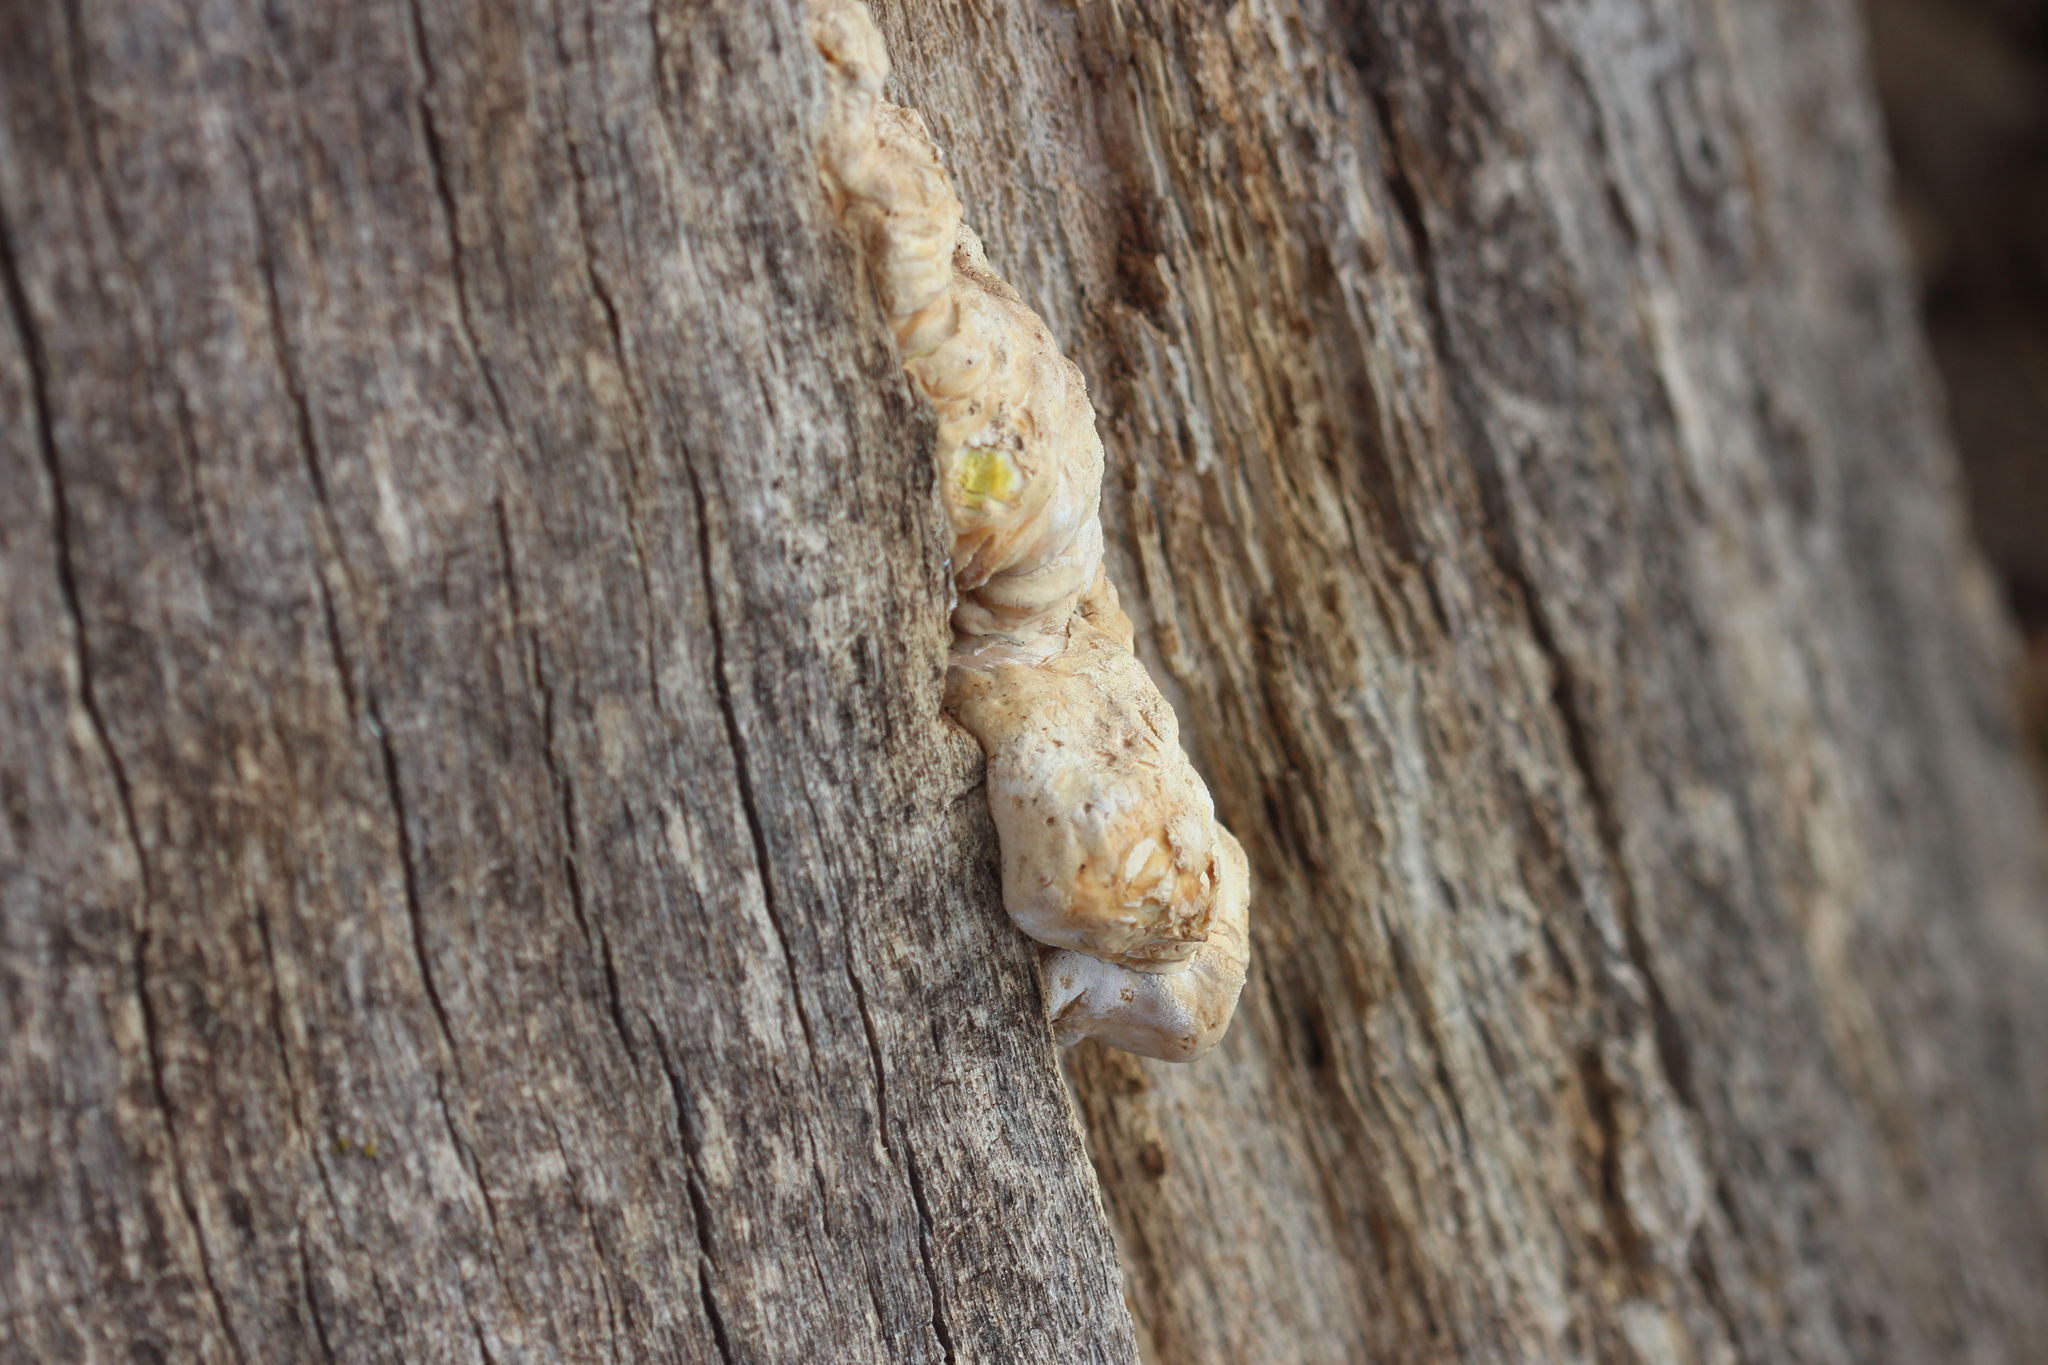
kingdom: Fungi
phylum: Basidiomycota
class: Agaricomycetes
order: Polyporales
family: Laetiporaceae
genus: Laetiporus
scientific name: Laetiporus gilbertsonii
